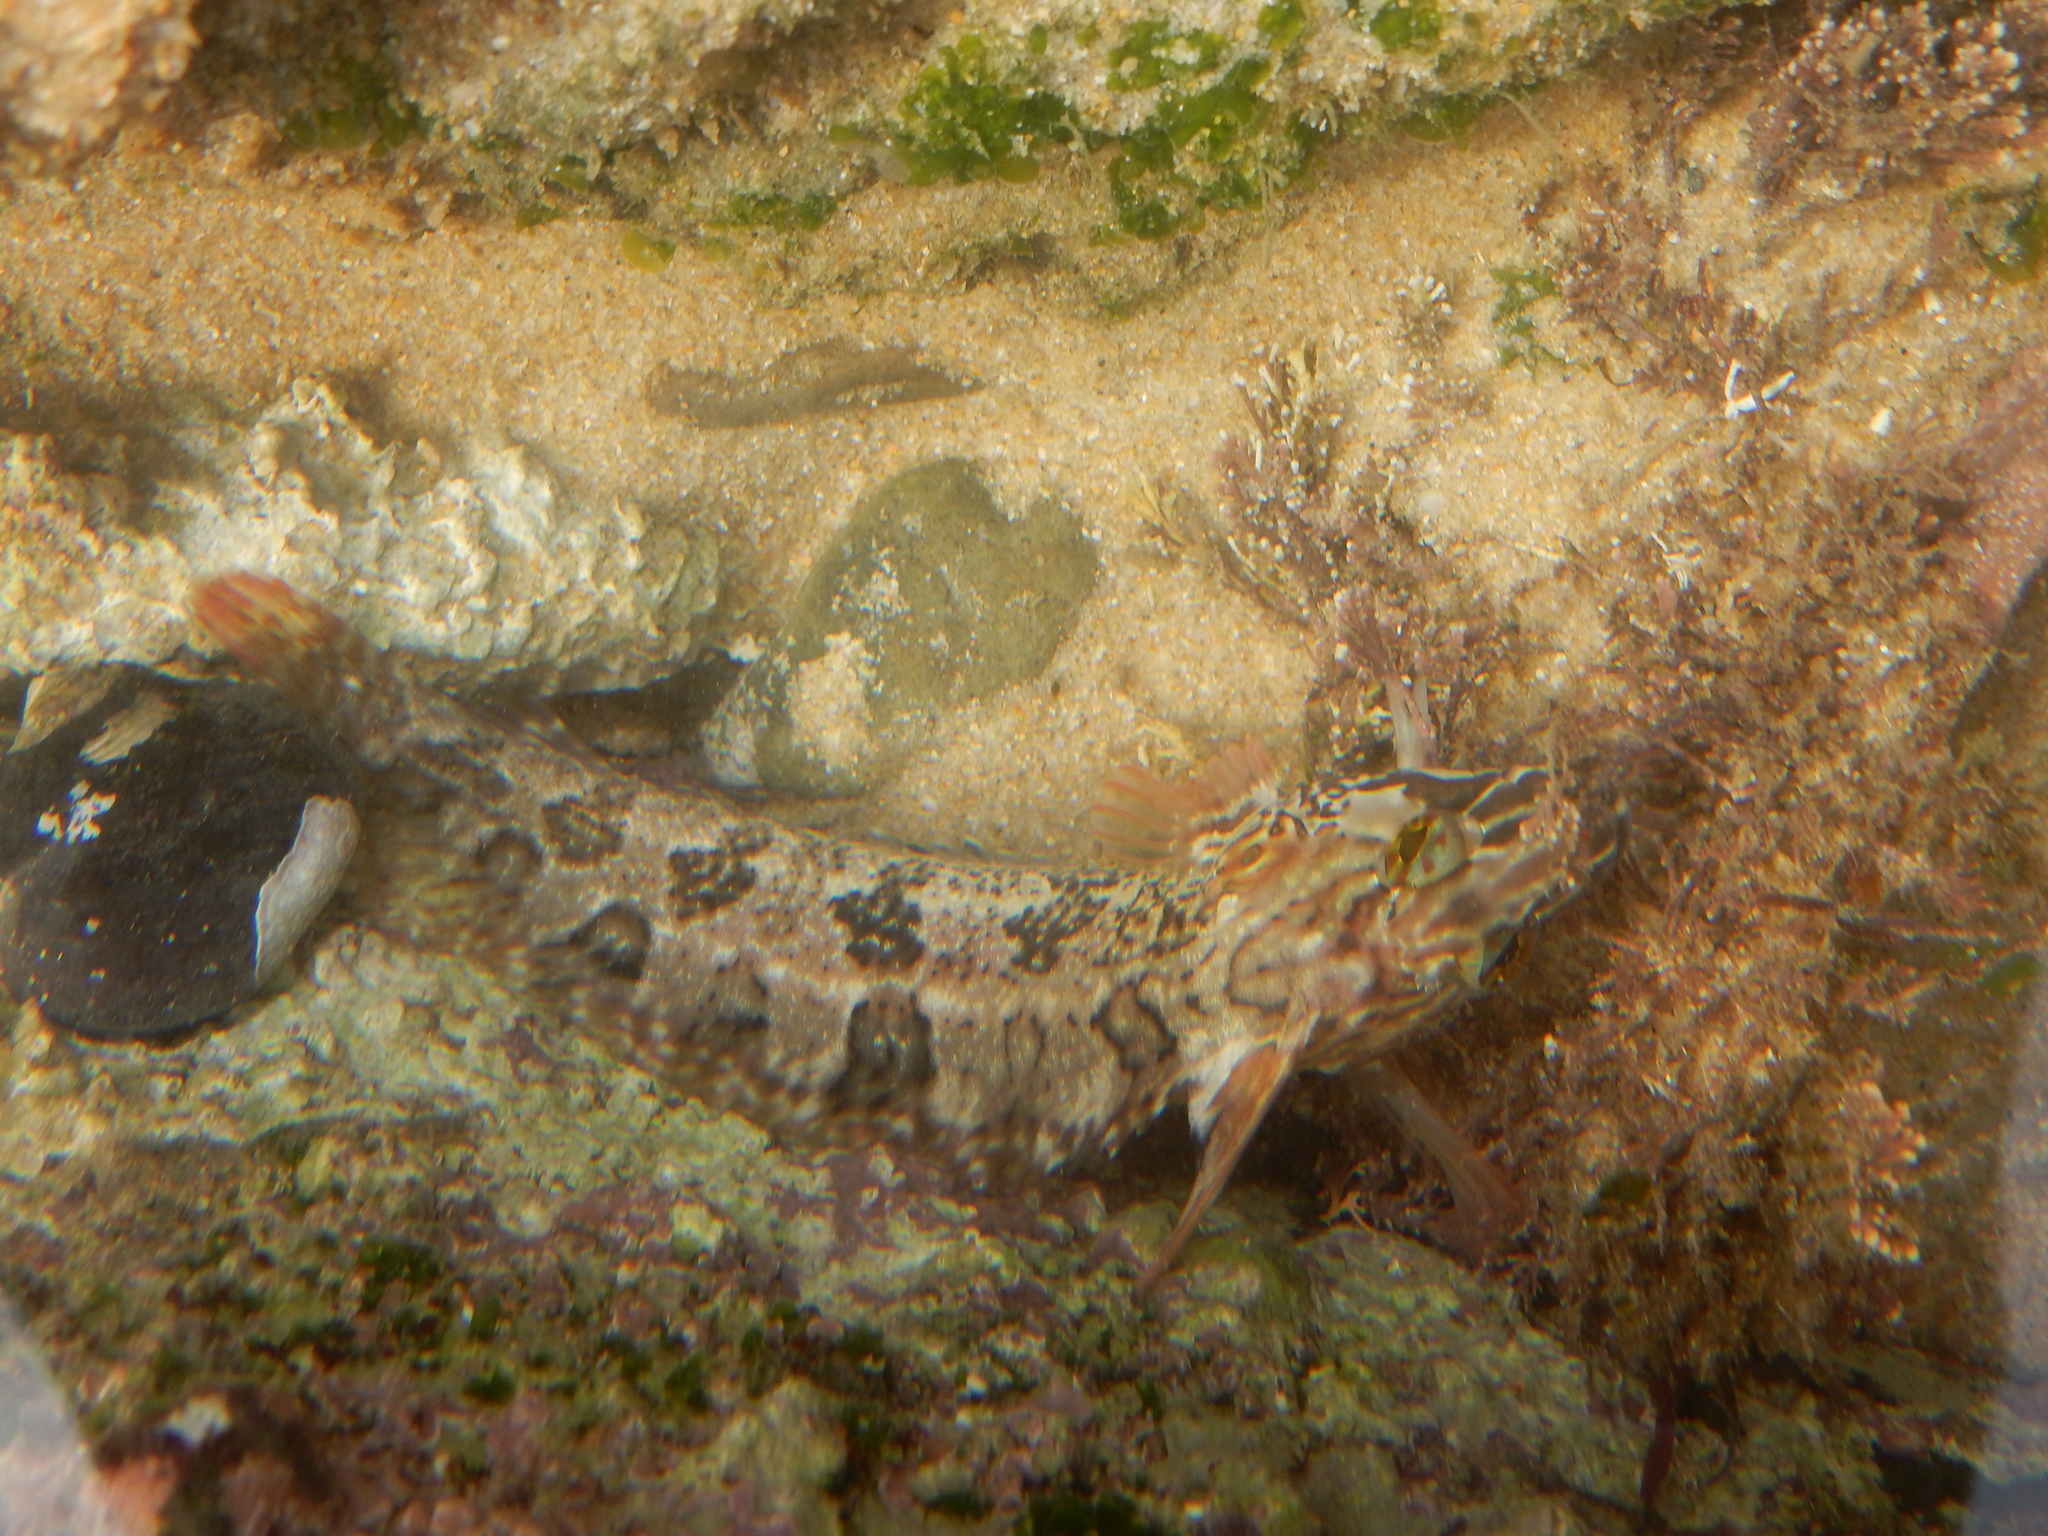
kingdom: Animalia
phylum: Chordata
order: Perciformes
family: Clinidae
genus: Clinus
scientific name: Clinus superciliosus
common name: Super klipfish
